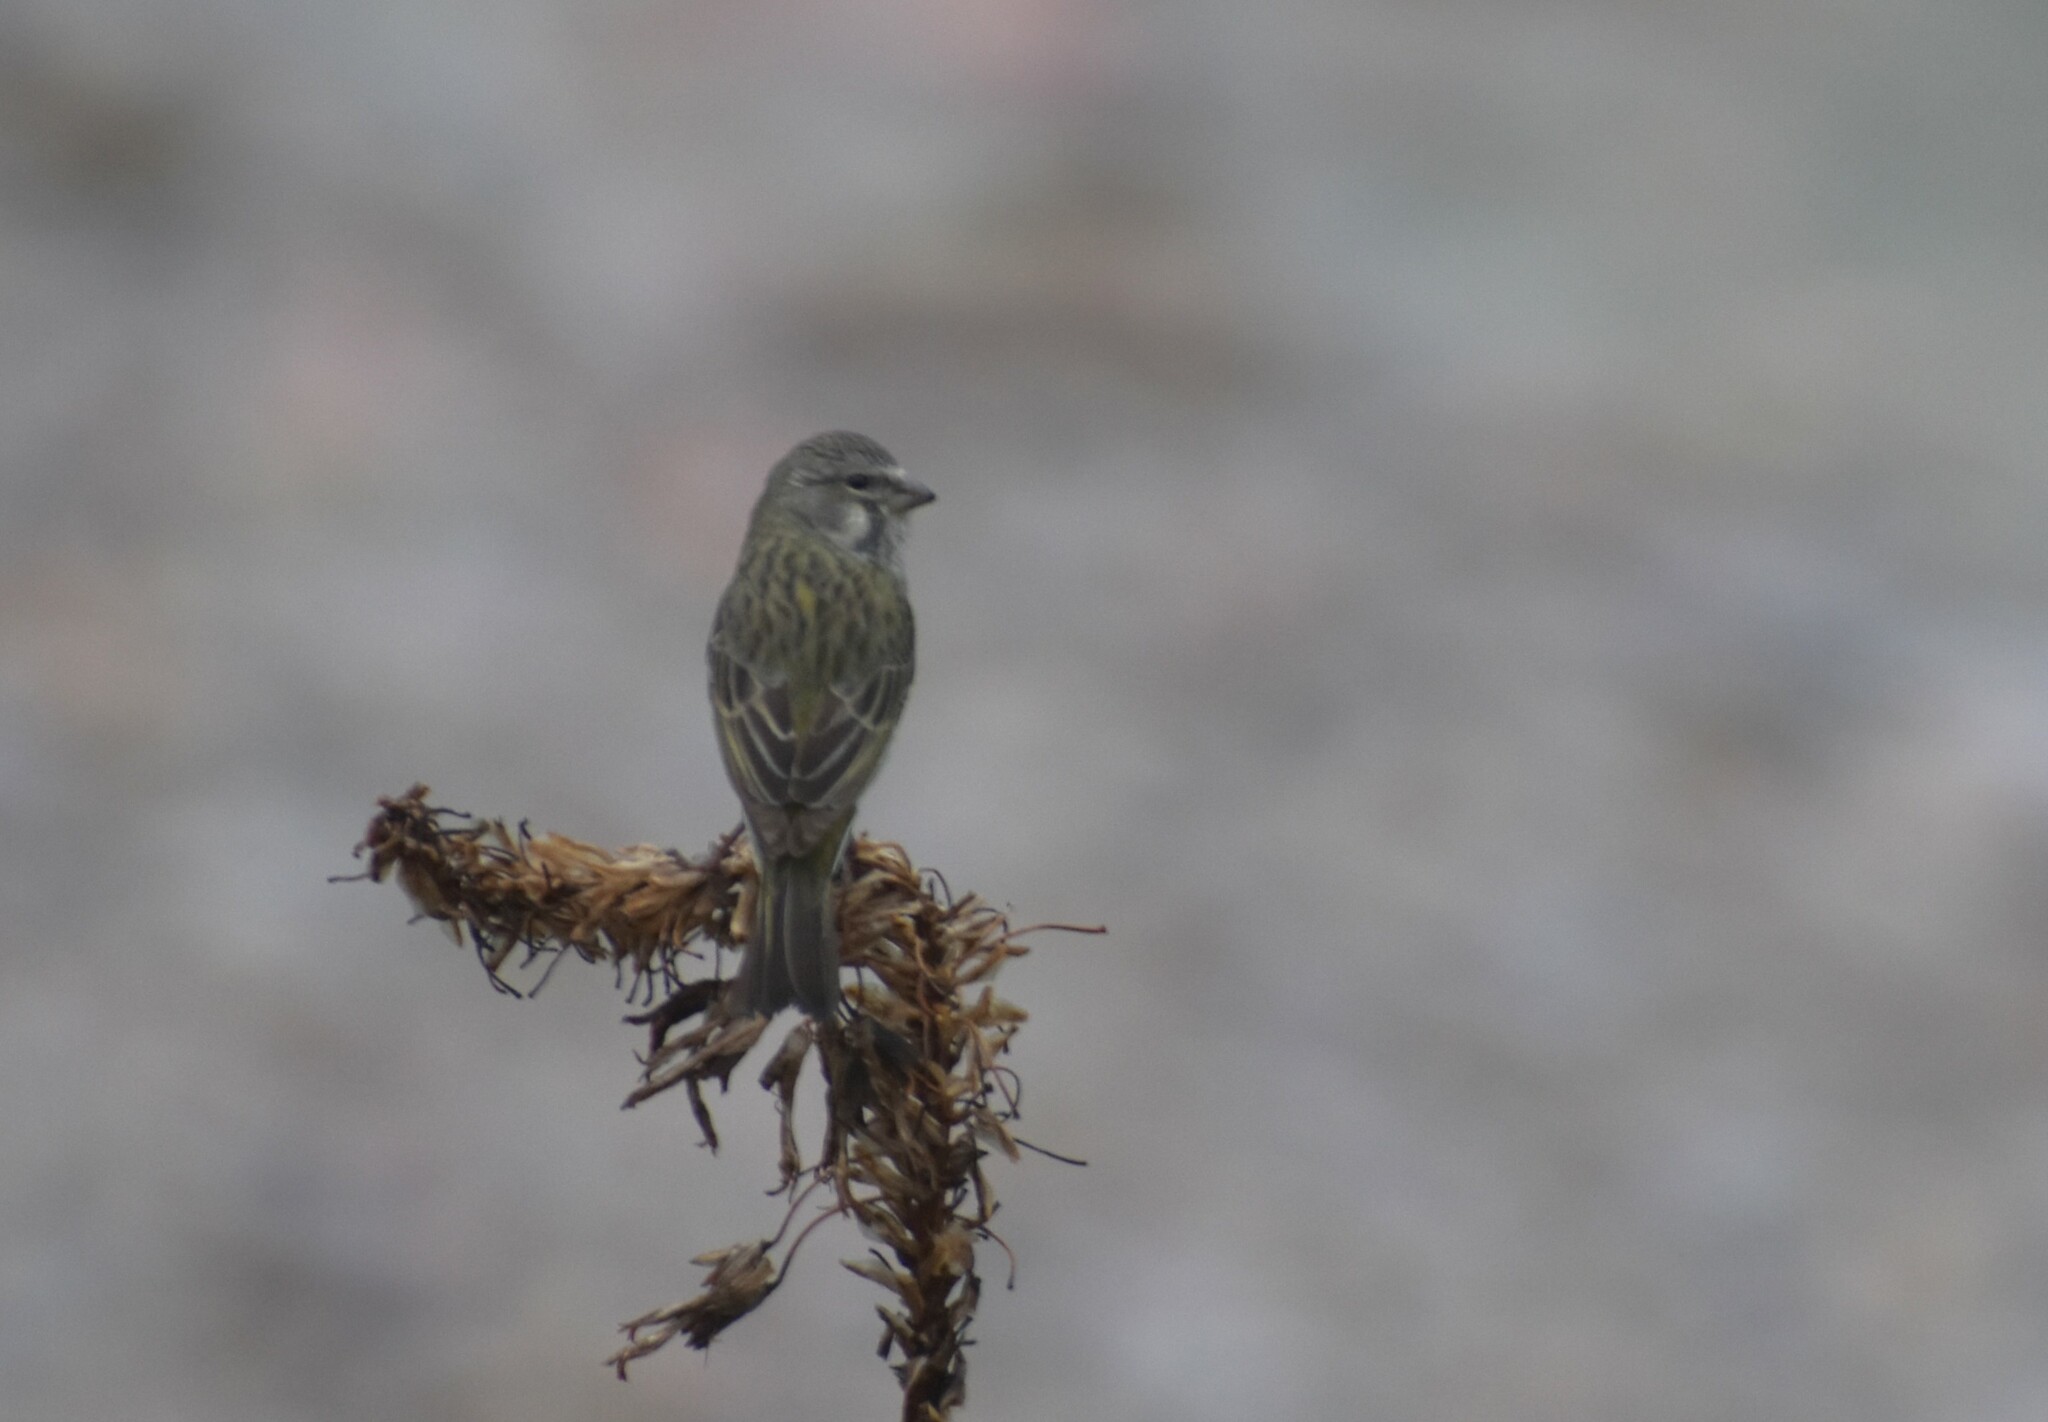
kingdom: Animalia
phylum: Chordata
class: Aves
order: Passeriformes
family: Fringillidae
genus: Crithagra
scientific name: Crithagra flaviventris
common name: Yellow canary
